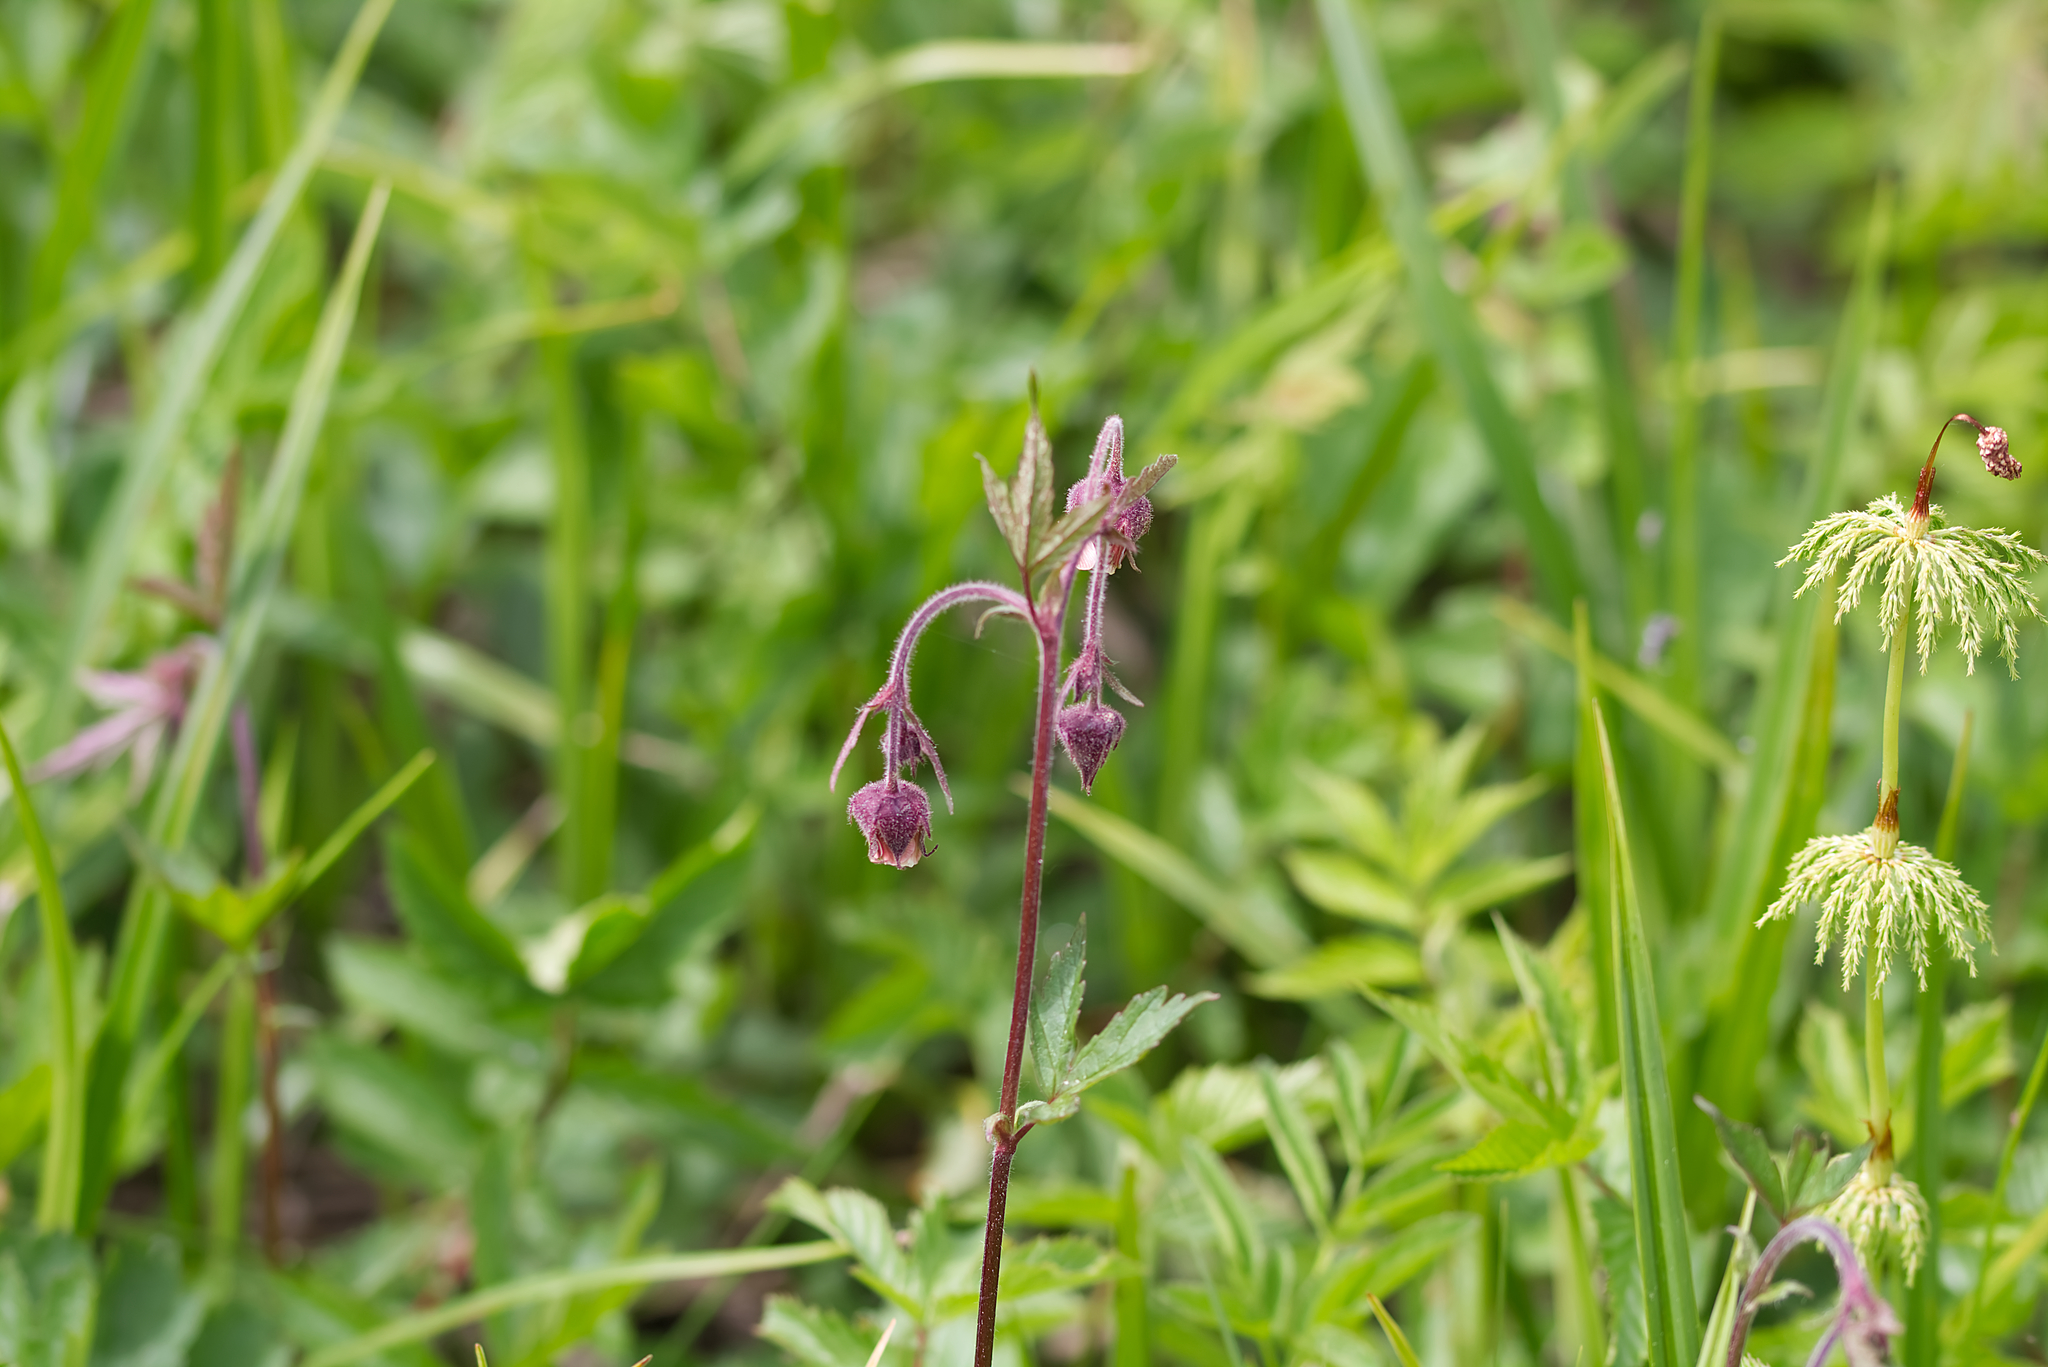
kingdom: Plantae
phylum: Tracheophyta
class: Magnoliopsida
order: Rosales
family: Rosaceae
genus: Geum
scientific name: Geum rivale
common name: Water avens
